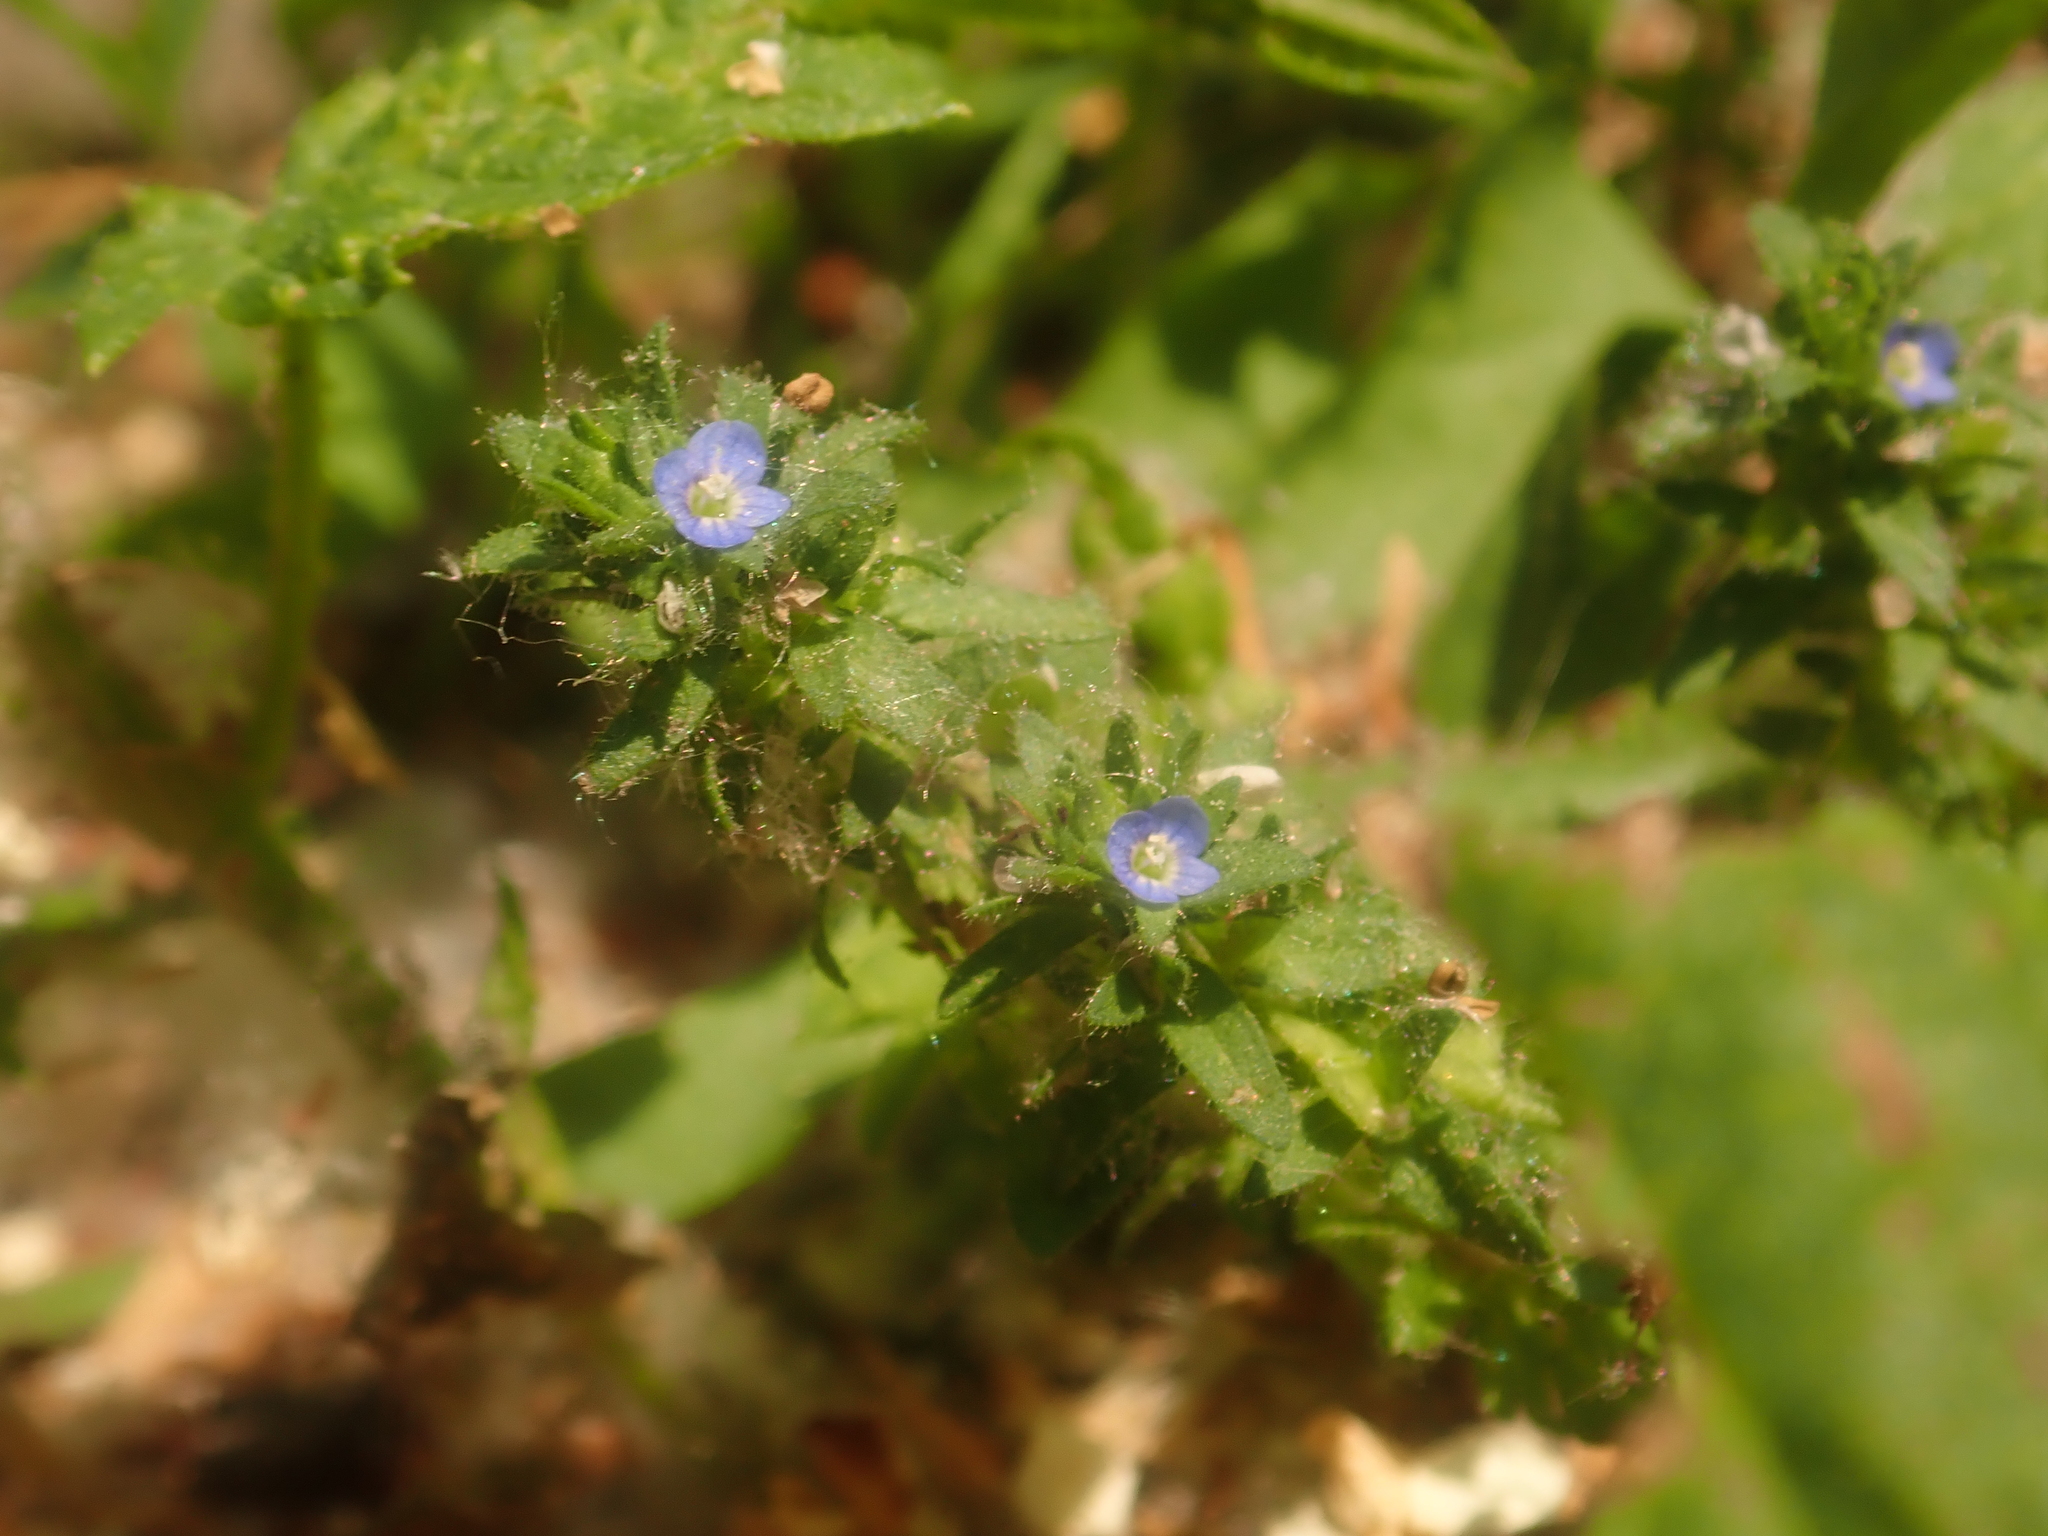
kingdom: Plantae
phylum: Tracheophyta
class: Magnoliopsida
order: Lamiales
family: Plantaginaceae
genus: Veronica
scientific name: Veronica arvensis
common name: Corn speedwell
